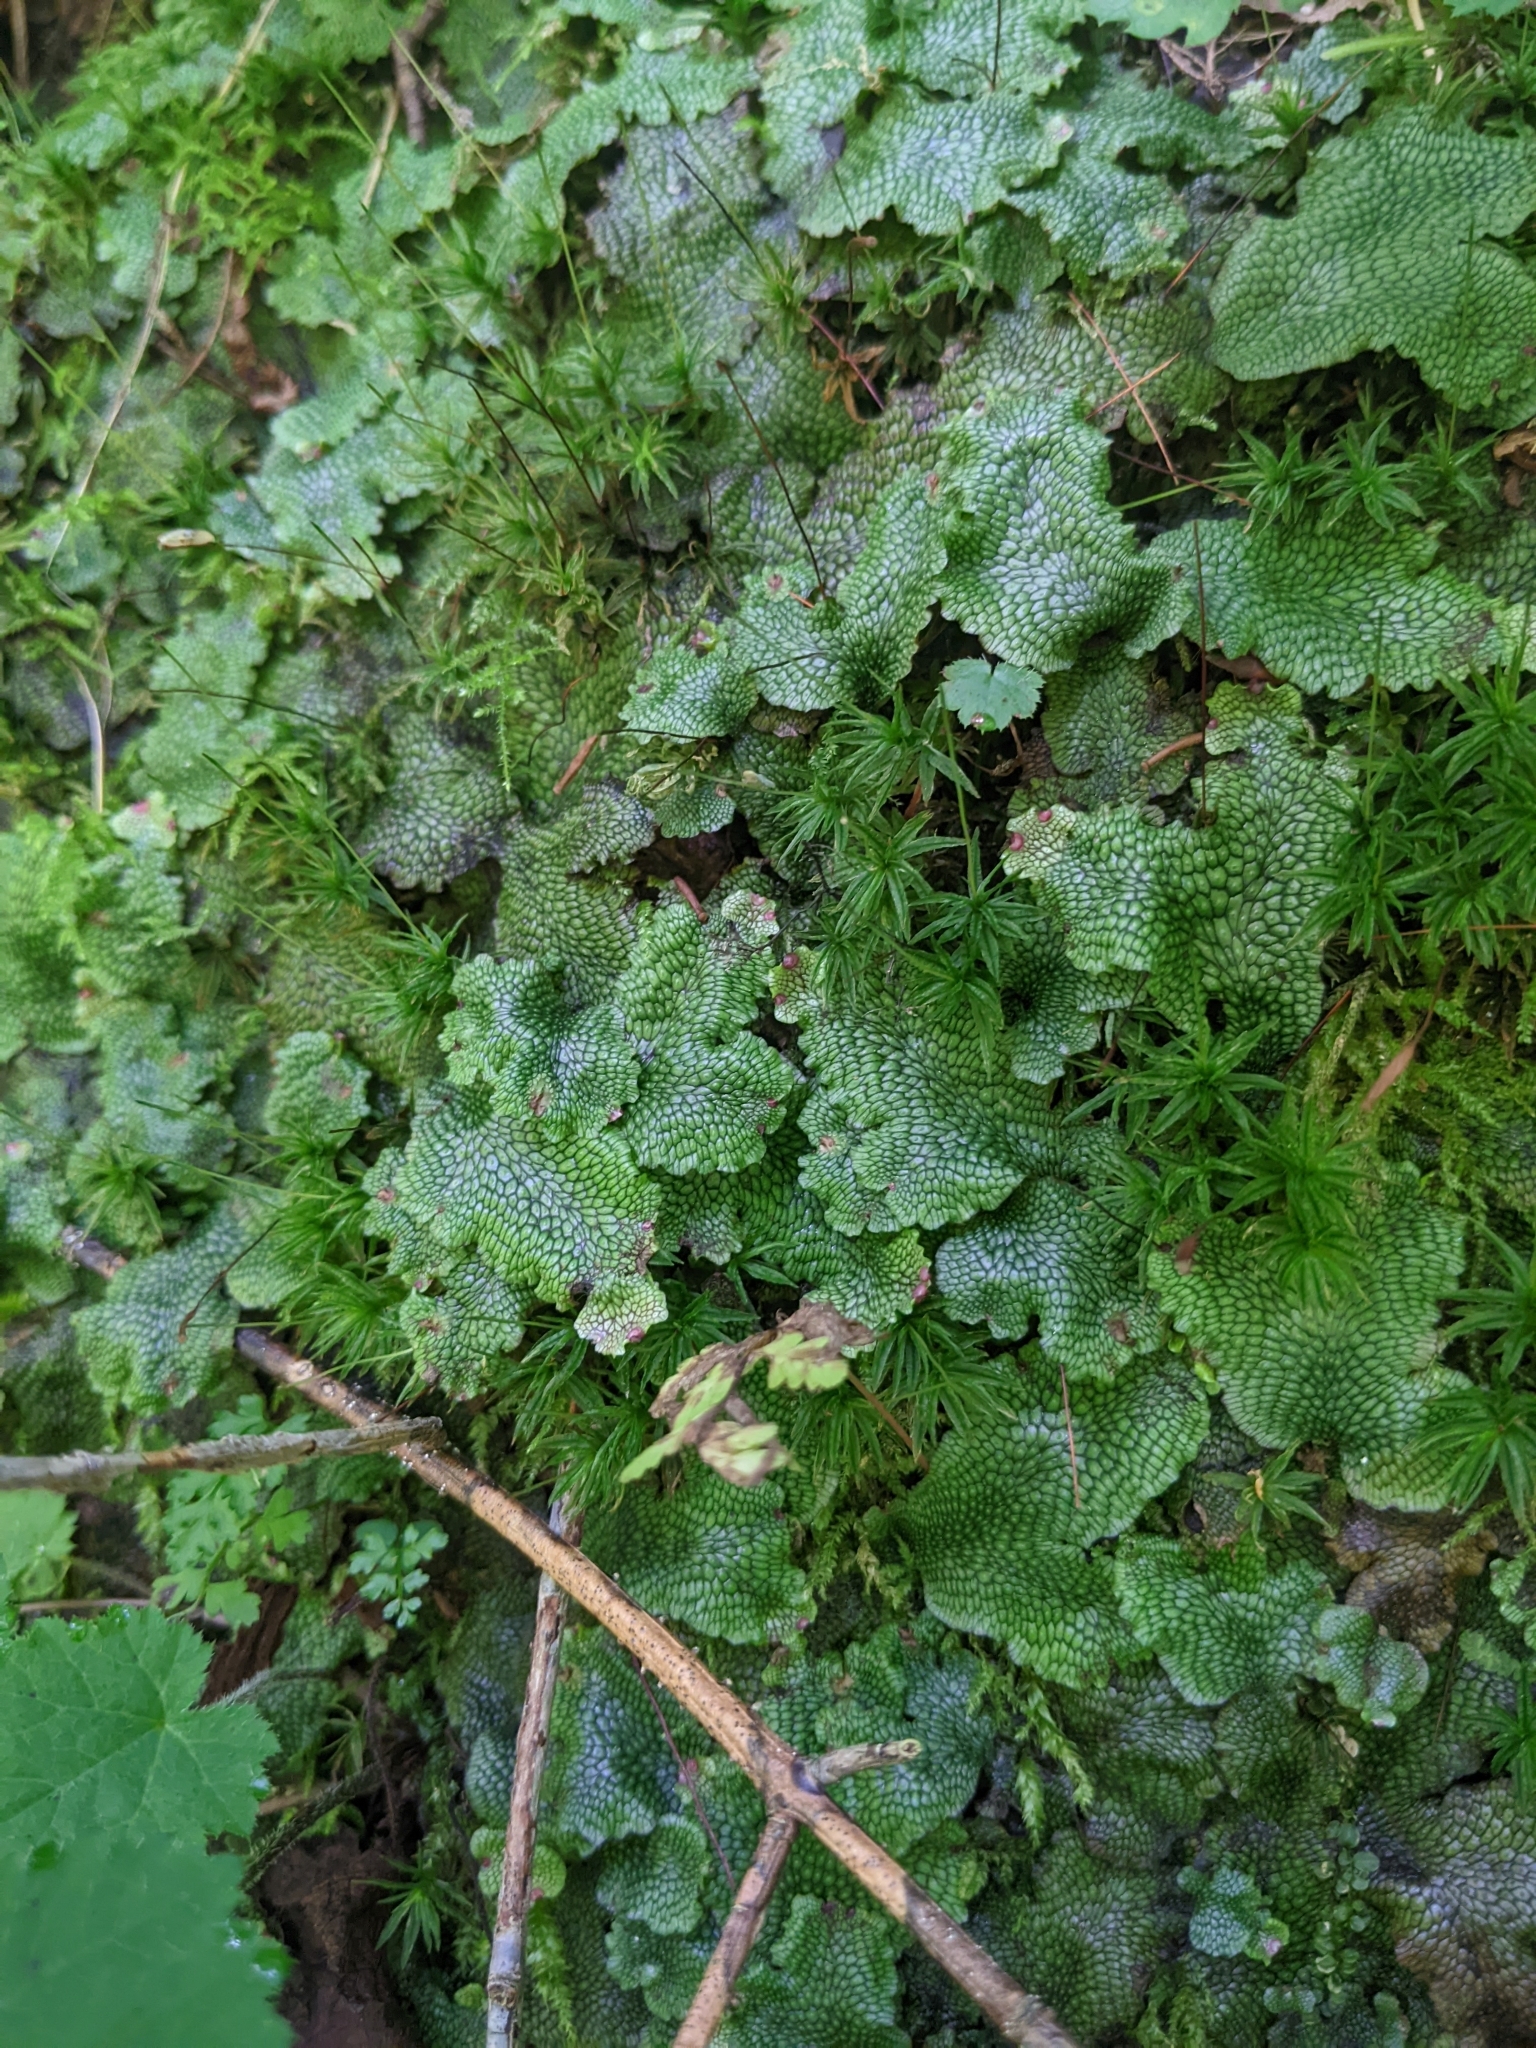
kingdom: Plantae
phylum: Marchantiophyta
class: Marchantiopsida
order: Marchantiales
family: Conocephalaceae
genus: Conocephalum
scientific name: Conocephalum salebrosum
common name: Cat-tongue liverwort
